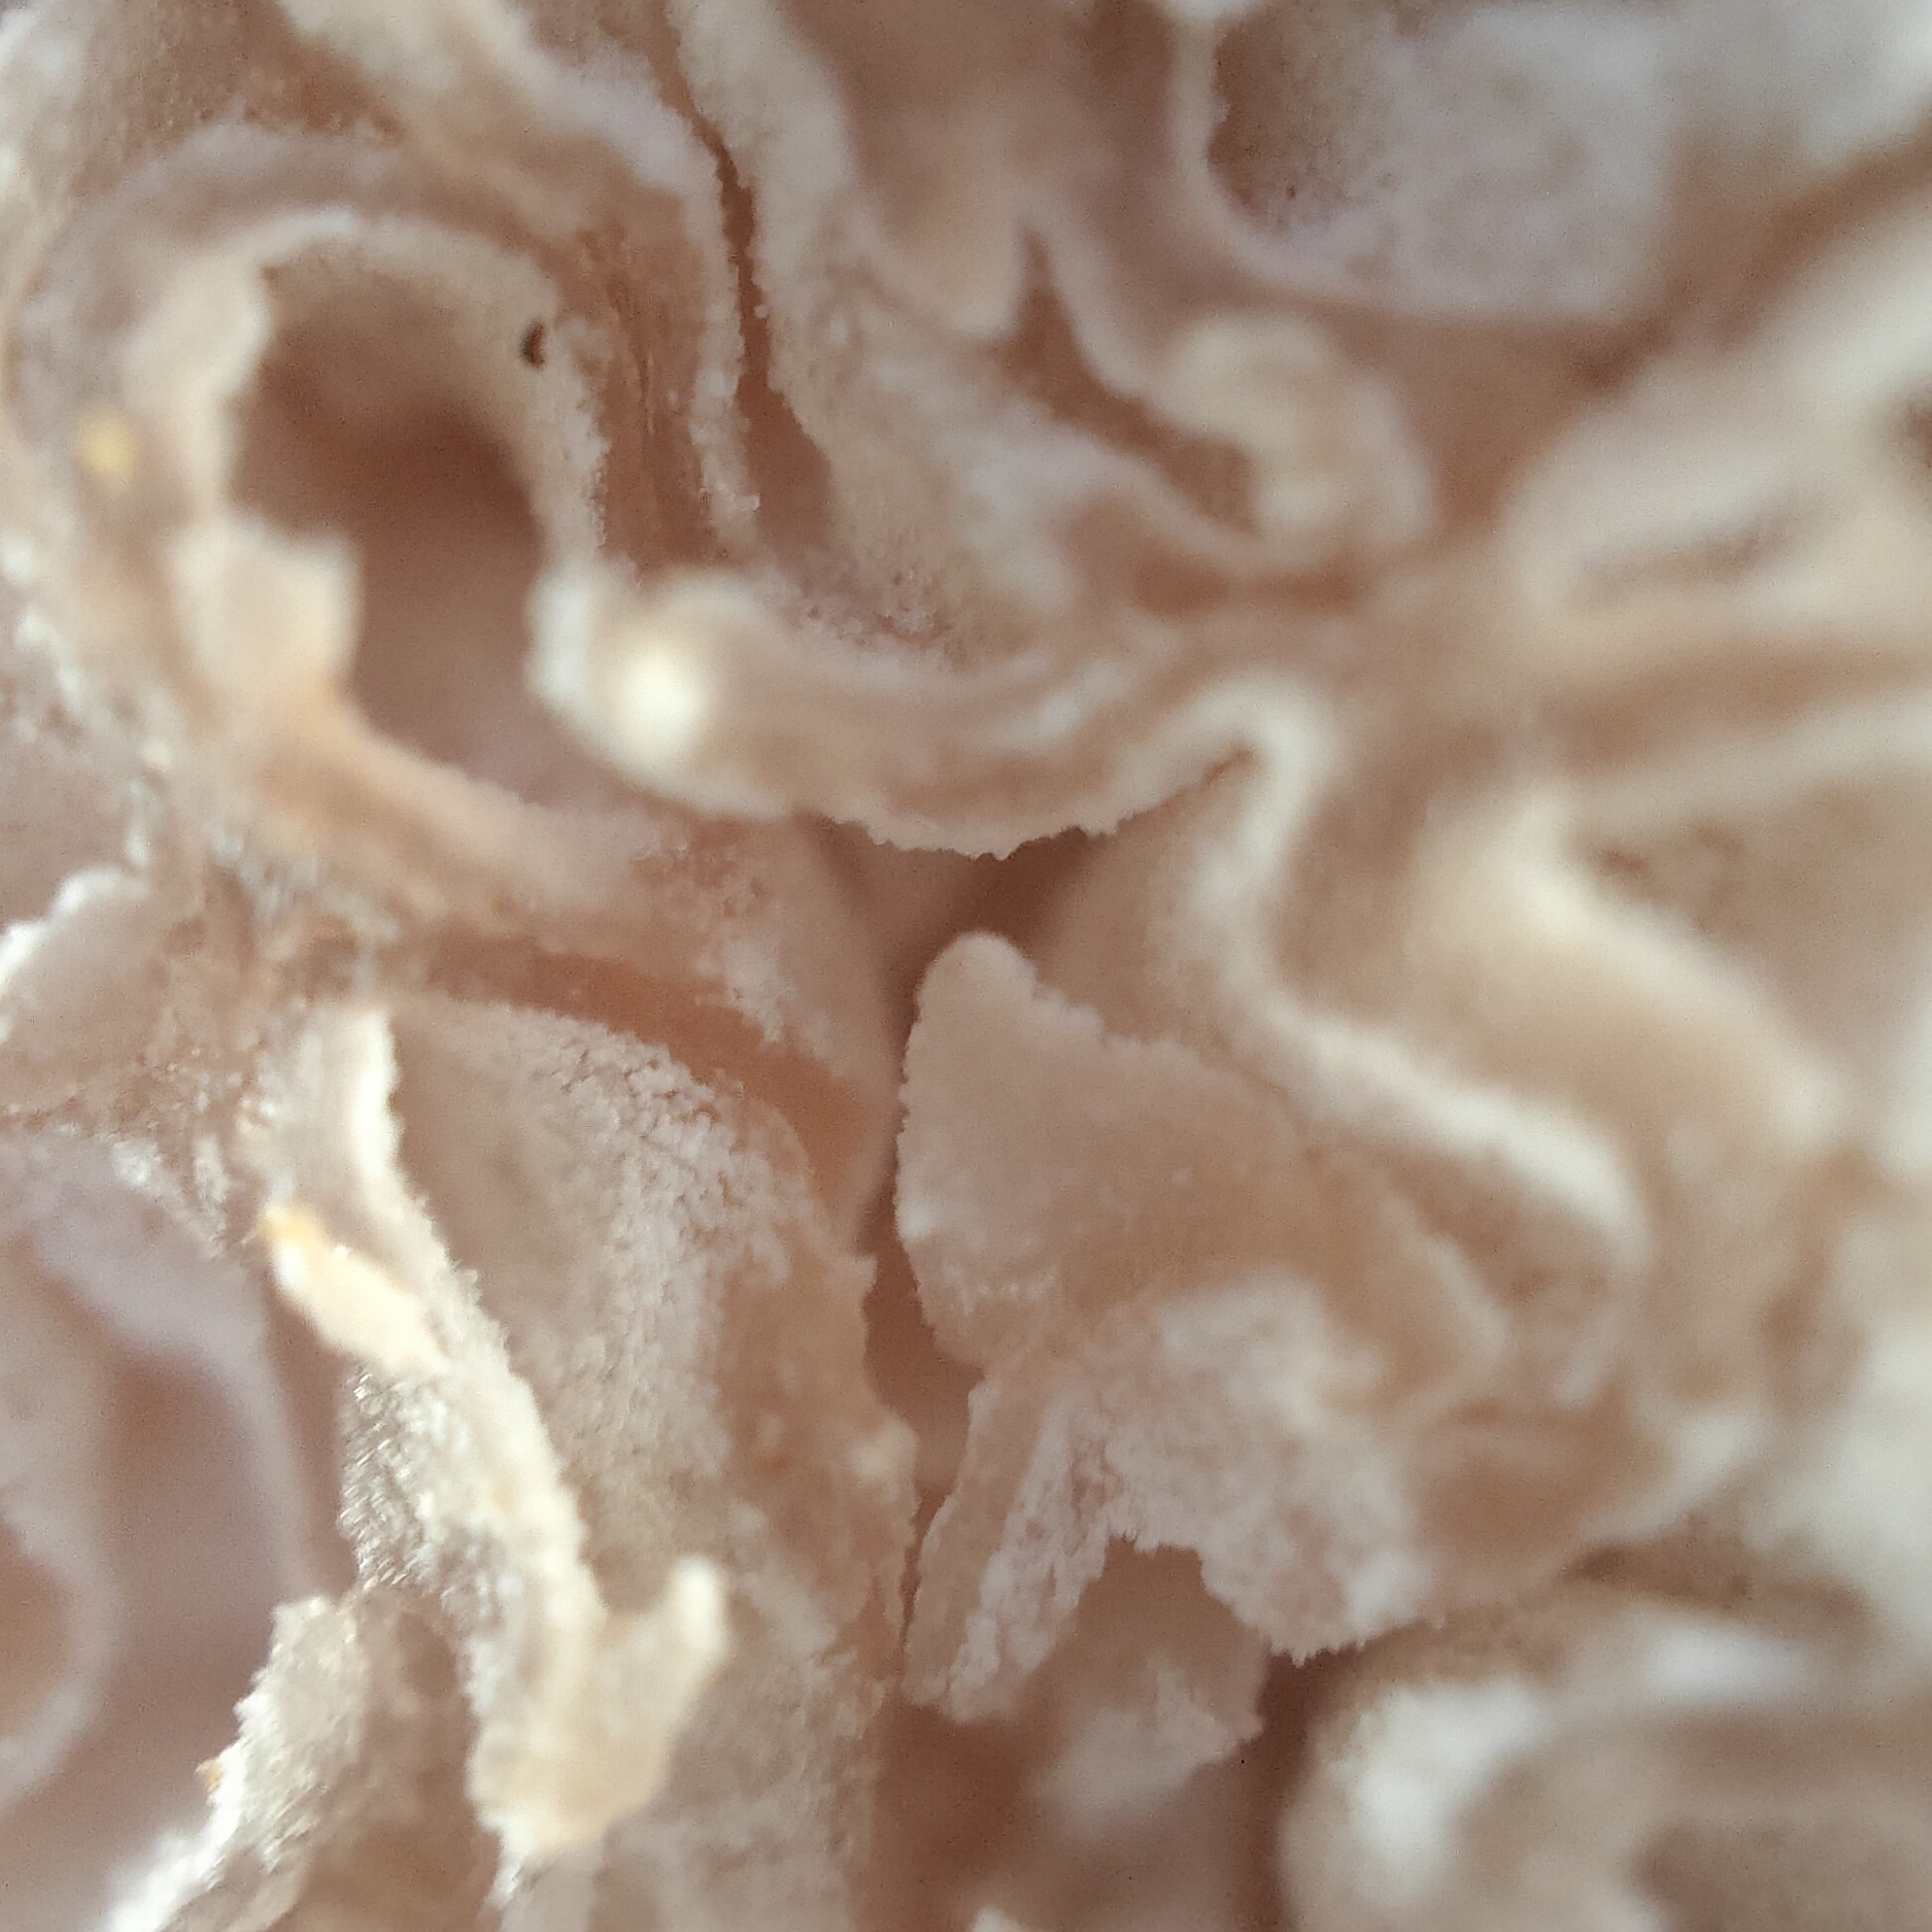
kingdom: Fungi
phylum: Basidiomycota
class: Agaricomycetes
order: Agaricales
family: Hydnangiaceae
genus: Hydnangium
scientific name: Hydnangium carneum
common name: Flesh-pink truffle
